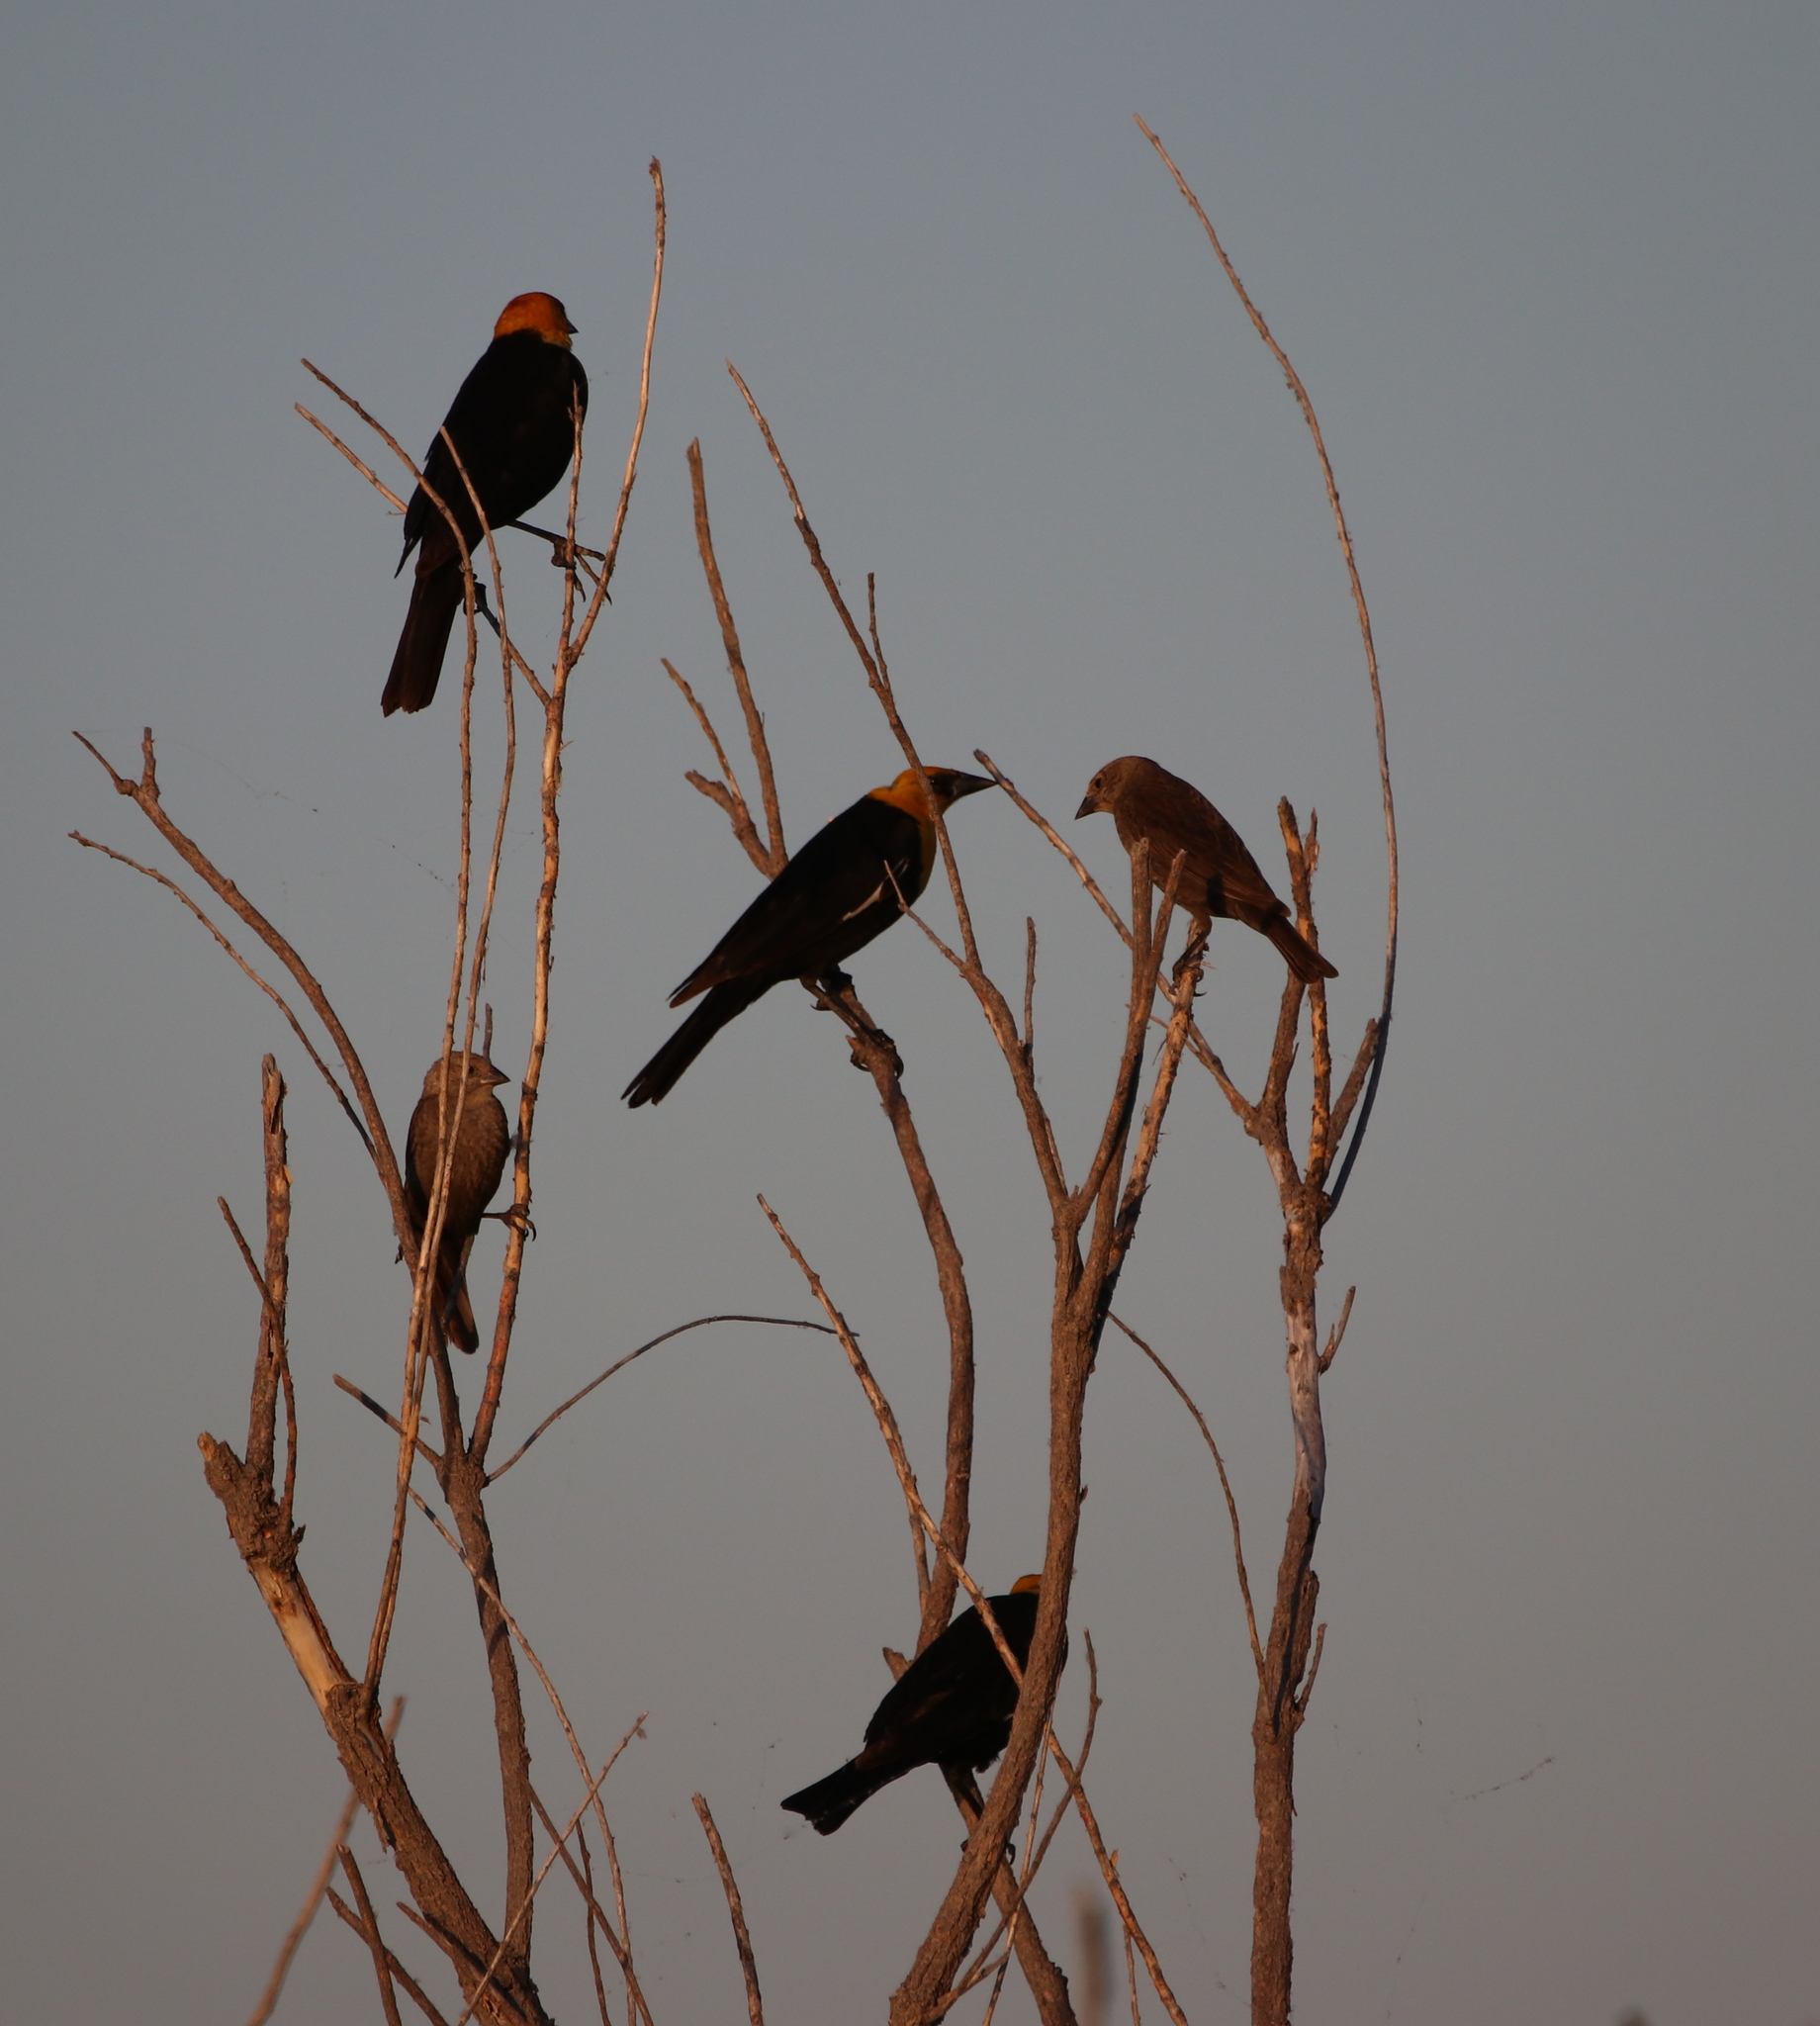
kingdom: Animalia
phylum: Chordata
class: Aves
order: Passeriformes
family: Icteridae
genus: Xanthocephalus
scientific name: Xanthocephalus xanthocephalus
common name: Yellow-headed blackbird
